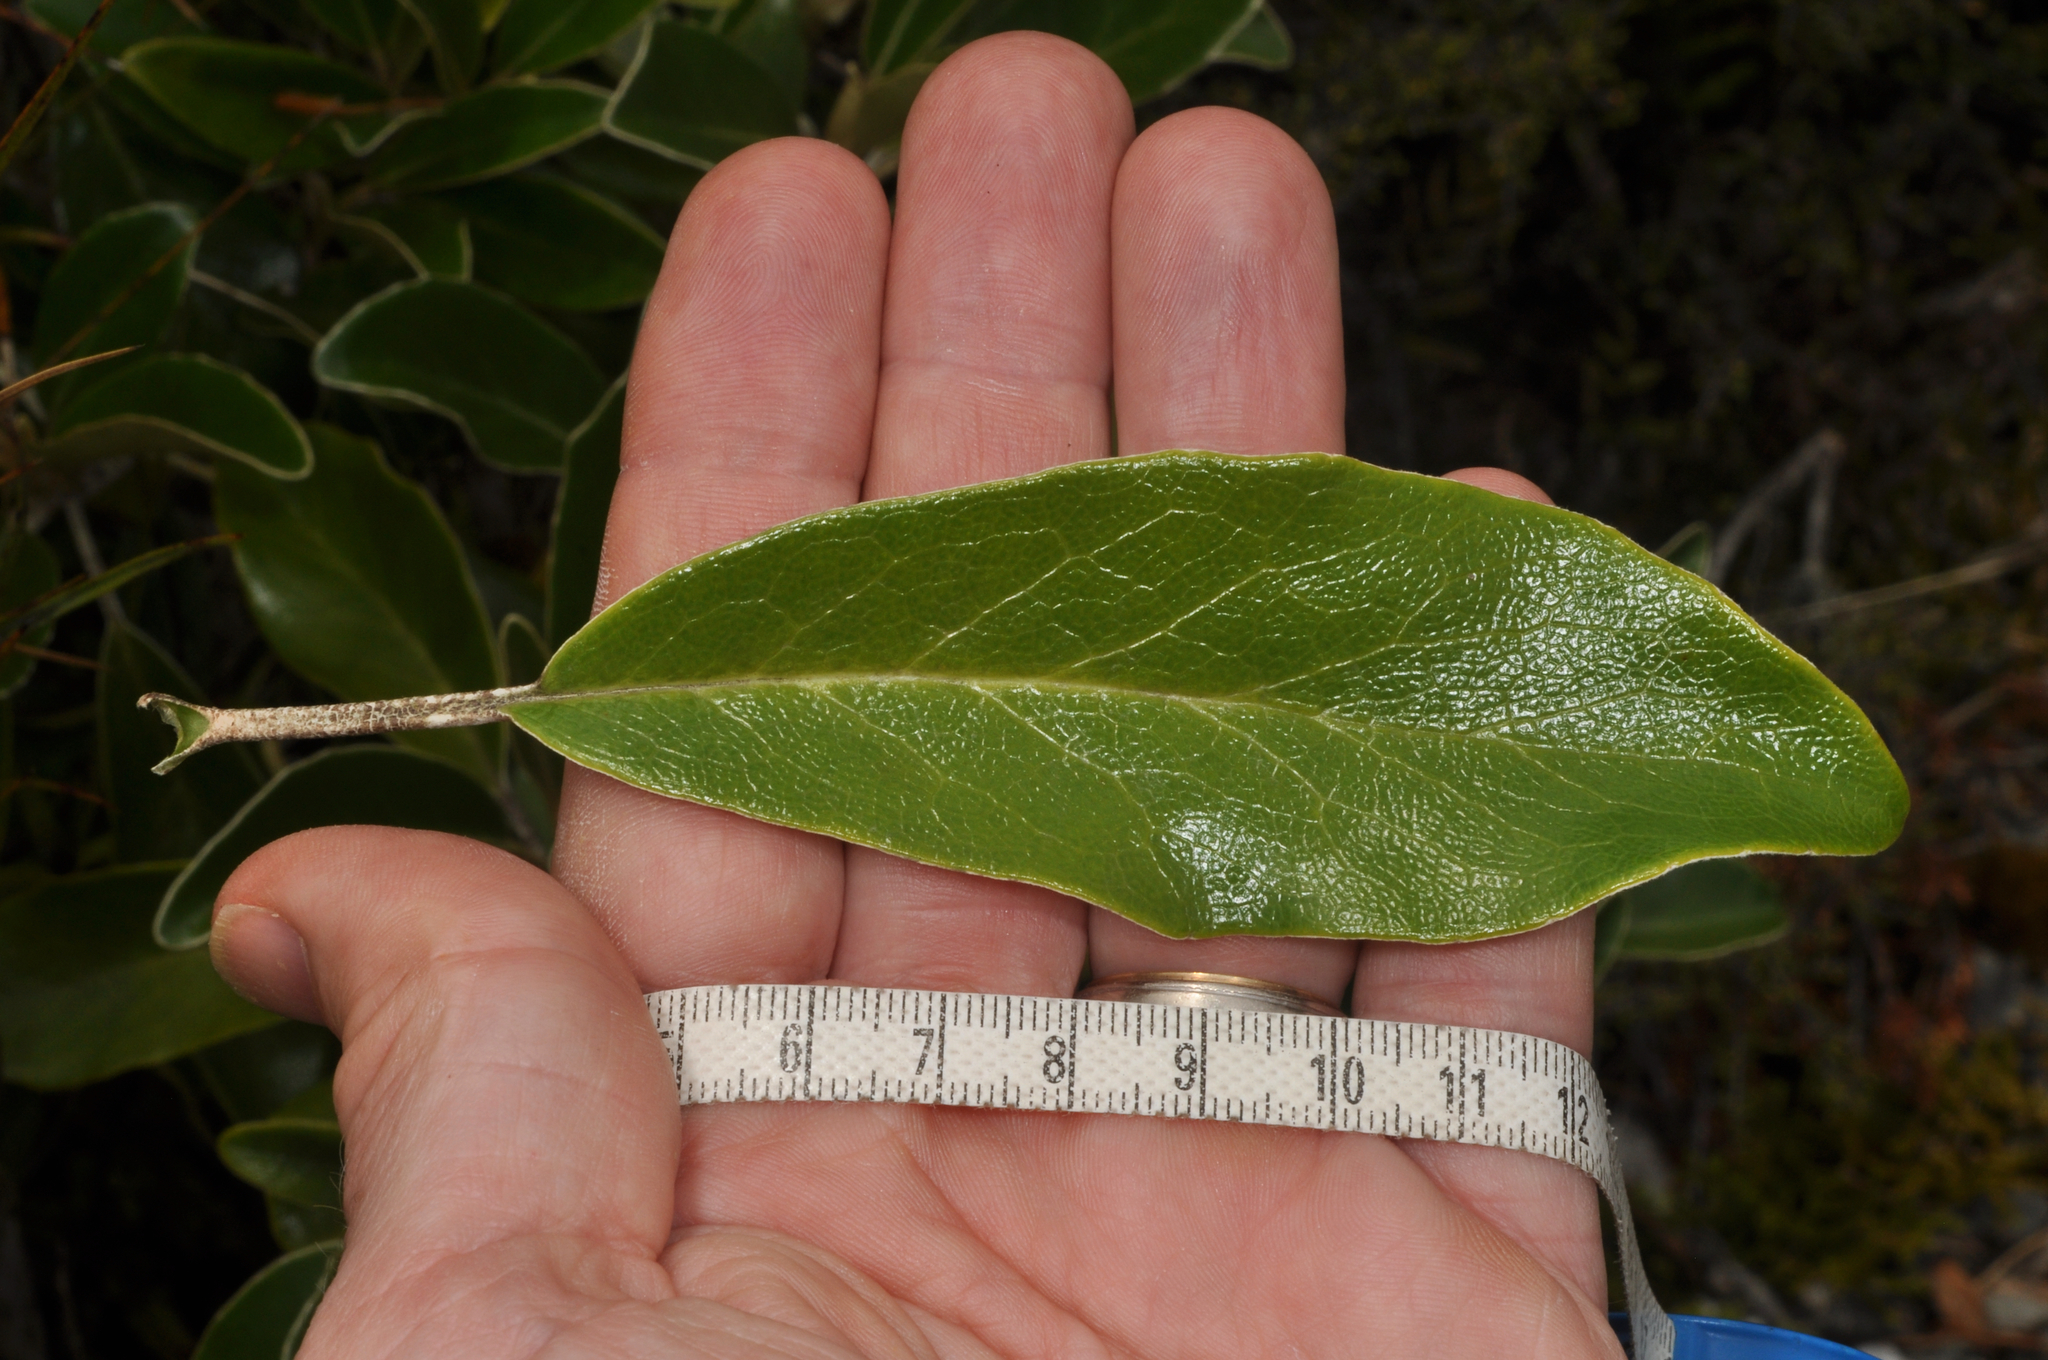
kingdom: Plantae
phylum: Tracheophyta
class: Magnoliopsida
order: Asterales
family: Asteraceae
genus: Brachyglottis
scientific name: Brachyglottis elaeagnifolia
